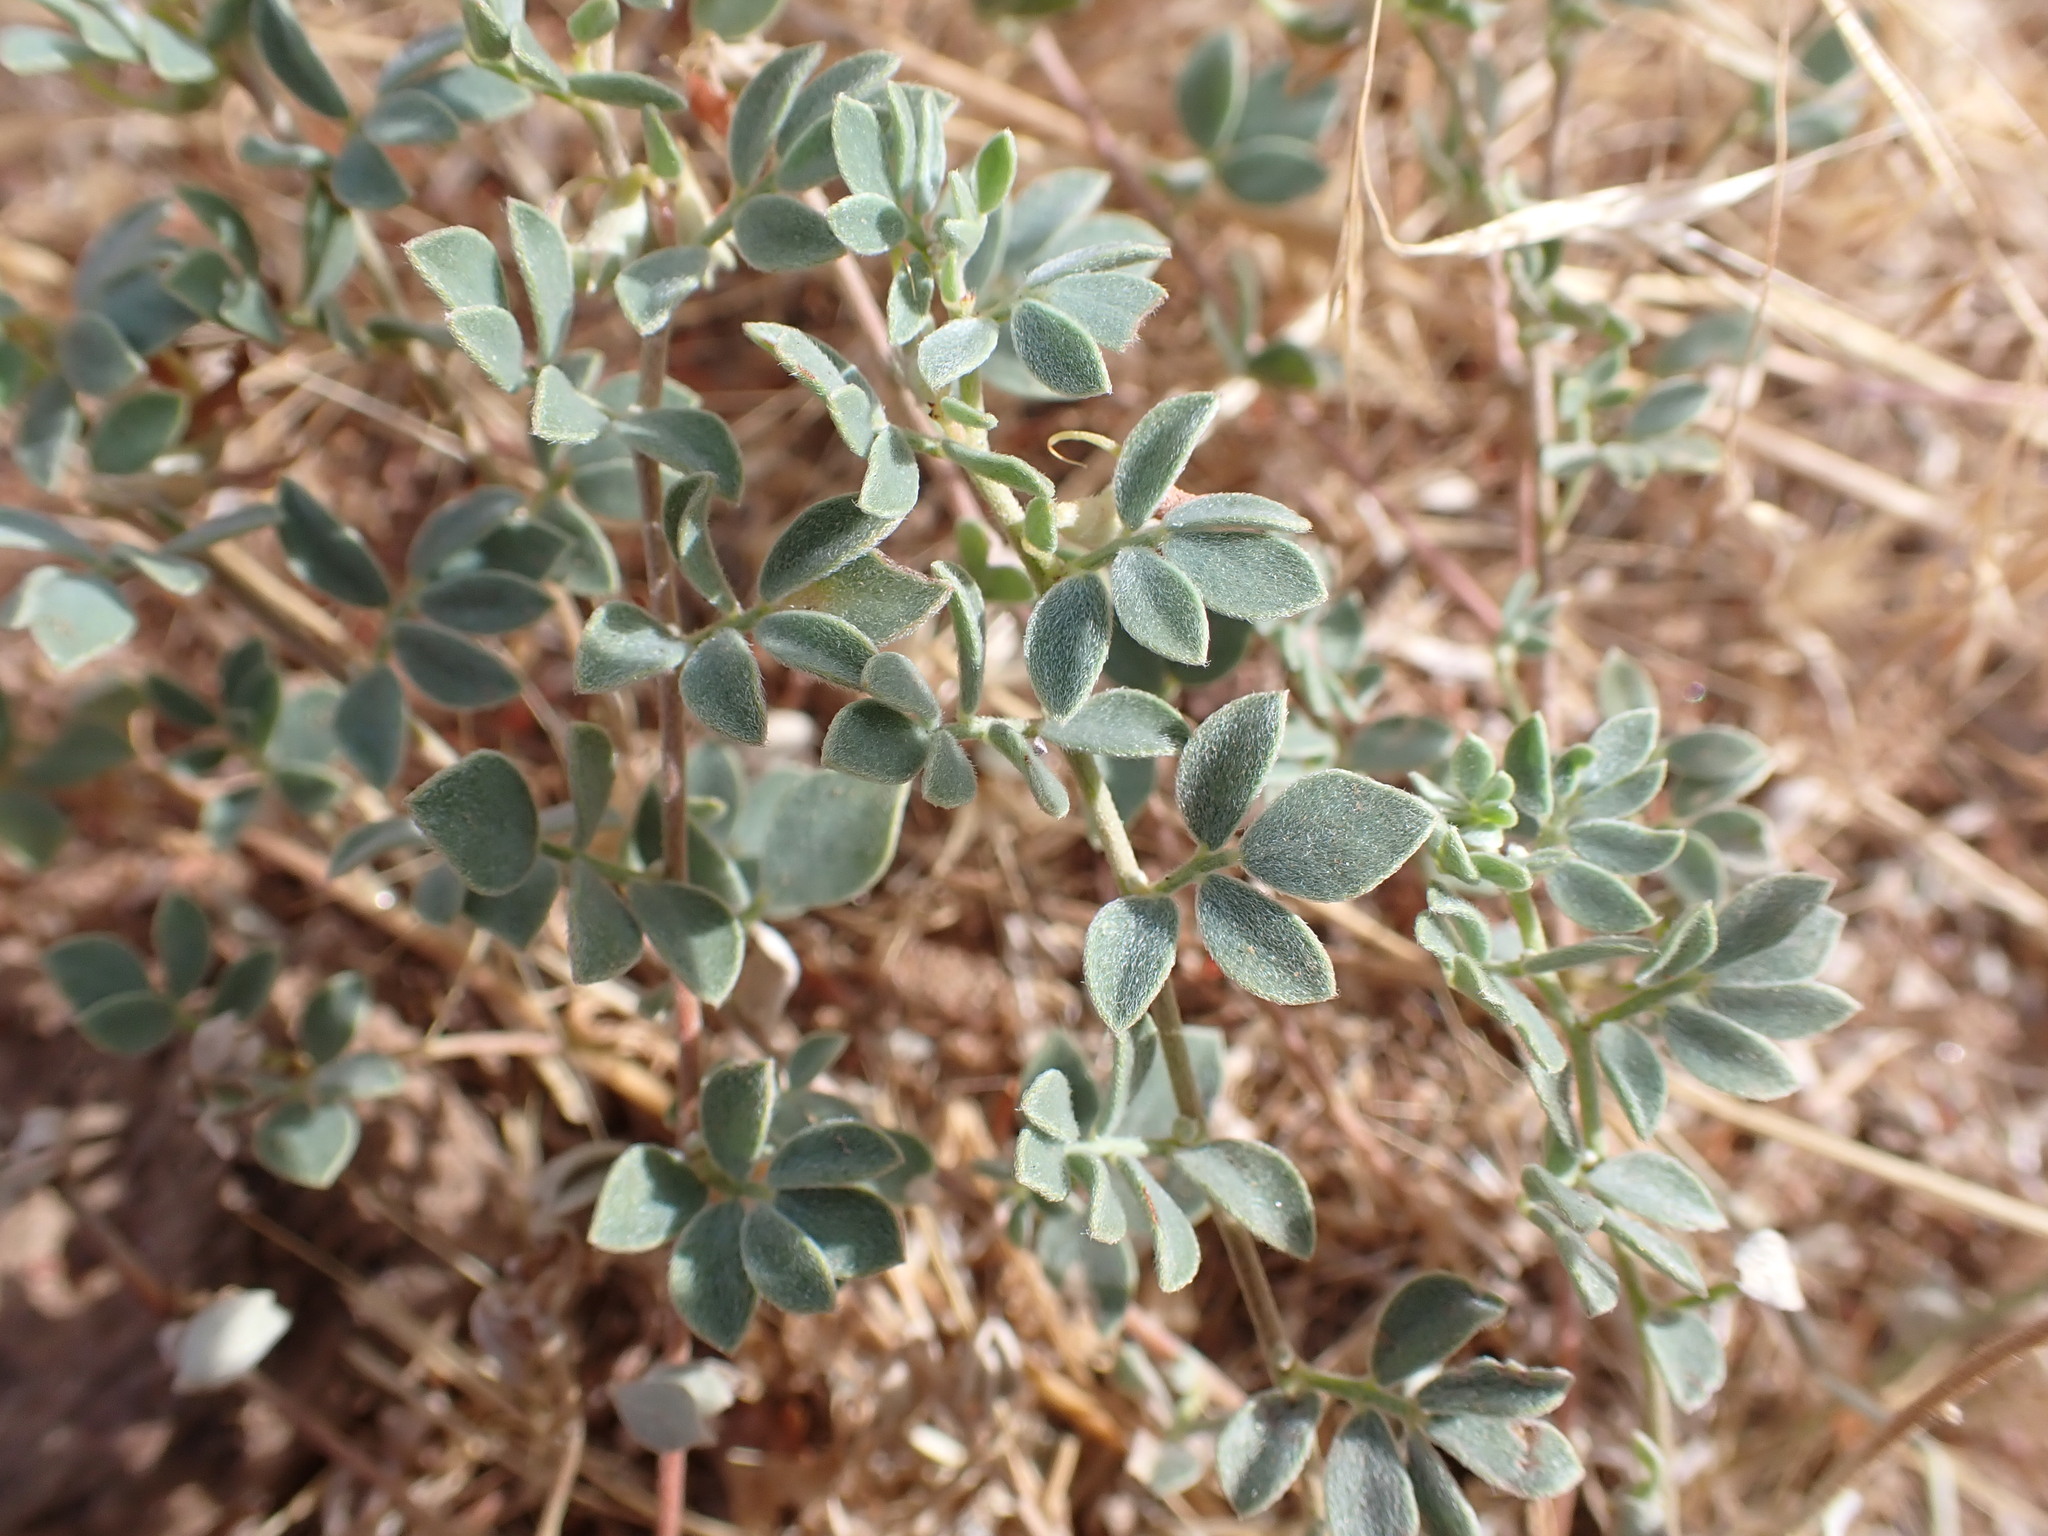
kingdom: Plantae
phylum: Tracheophyta
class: Magnoliopsida
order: Fabales
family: Fabaceae
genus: Acmispon
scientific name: Acmispon decumbens
